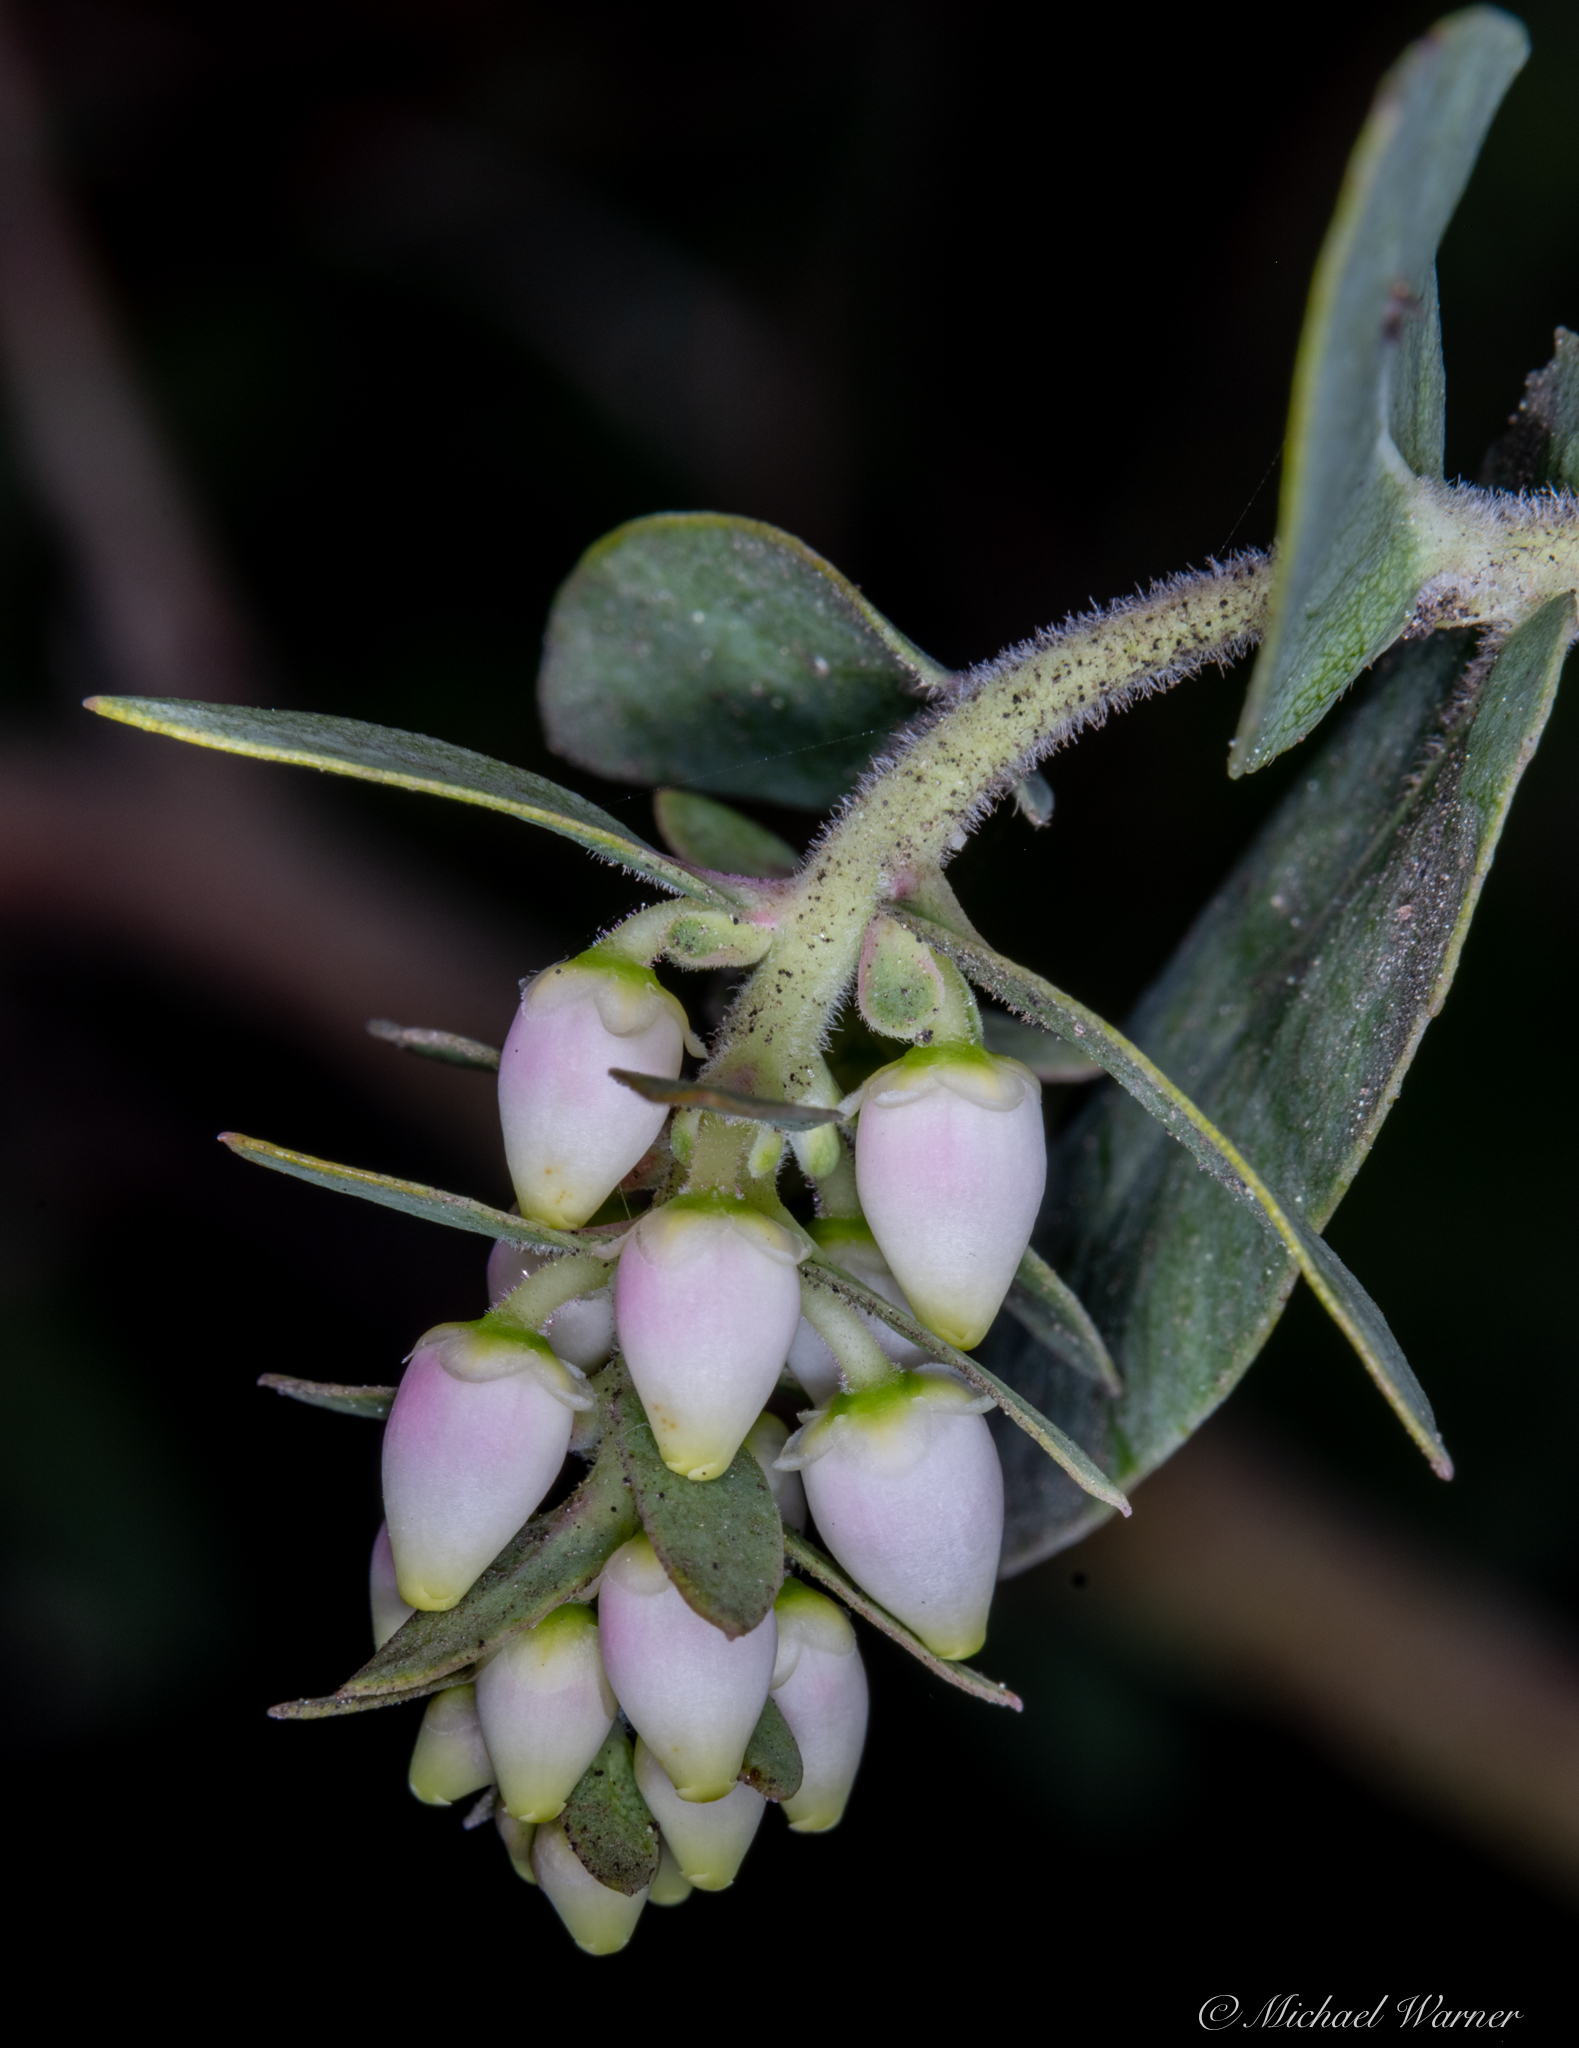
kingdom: Plantae
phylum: Tracheophyta
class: Magnoliopsida
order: Ericales
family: Ericaceae
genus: Arctostaphylos
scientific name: Arctostaphylos pallida
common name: Pallid manzanita
